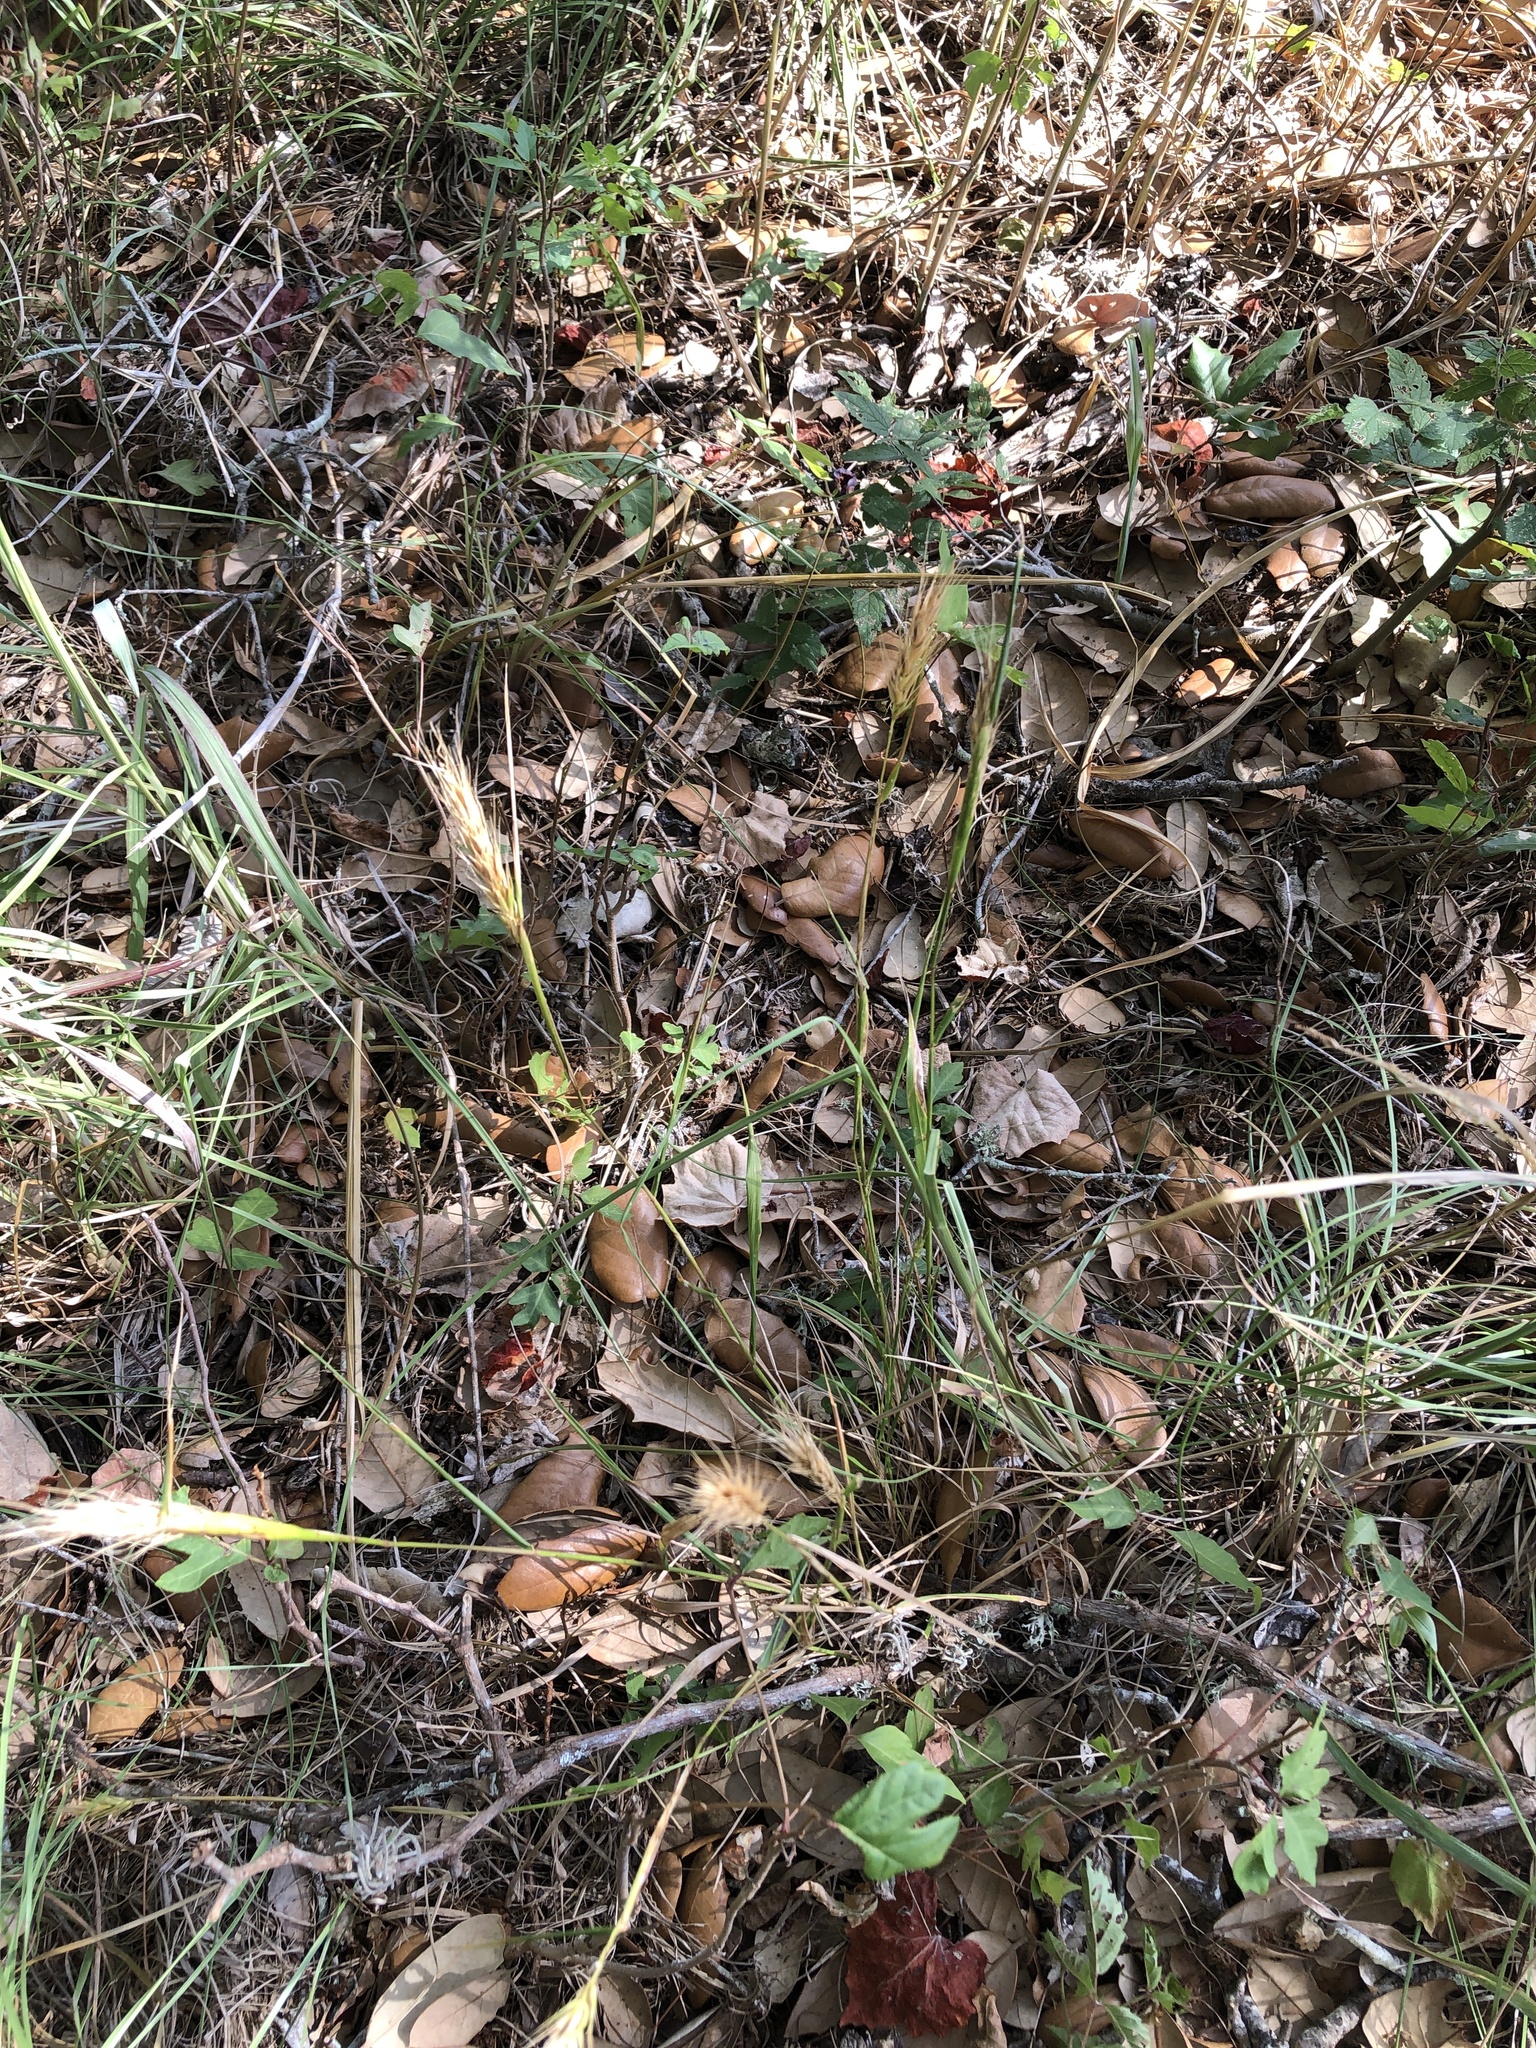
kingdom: Plantae
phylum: Tracheophyta
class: Liliopsida
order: Poales
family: Poaceae
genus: Elymus
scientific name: Elymus virginicus
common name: Common eastern wildrye
